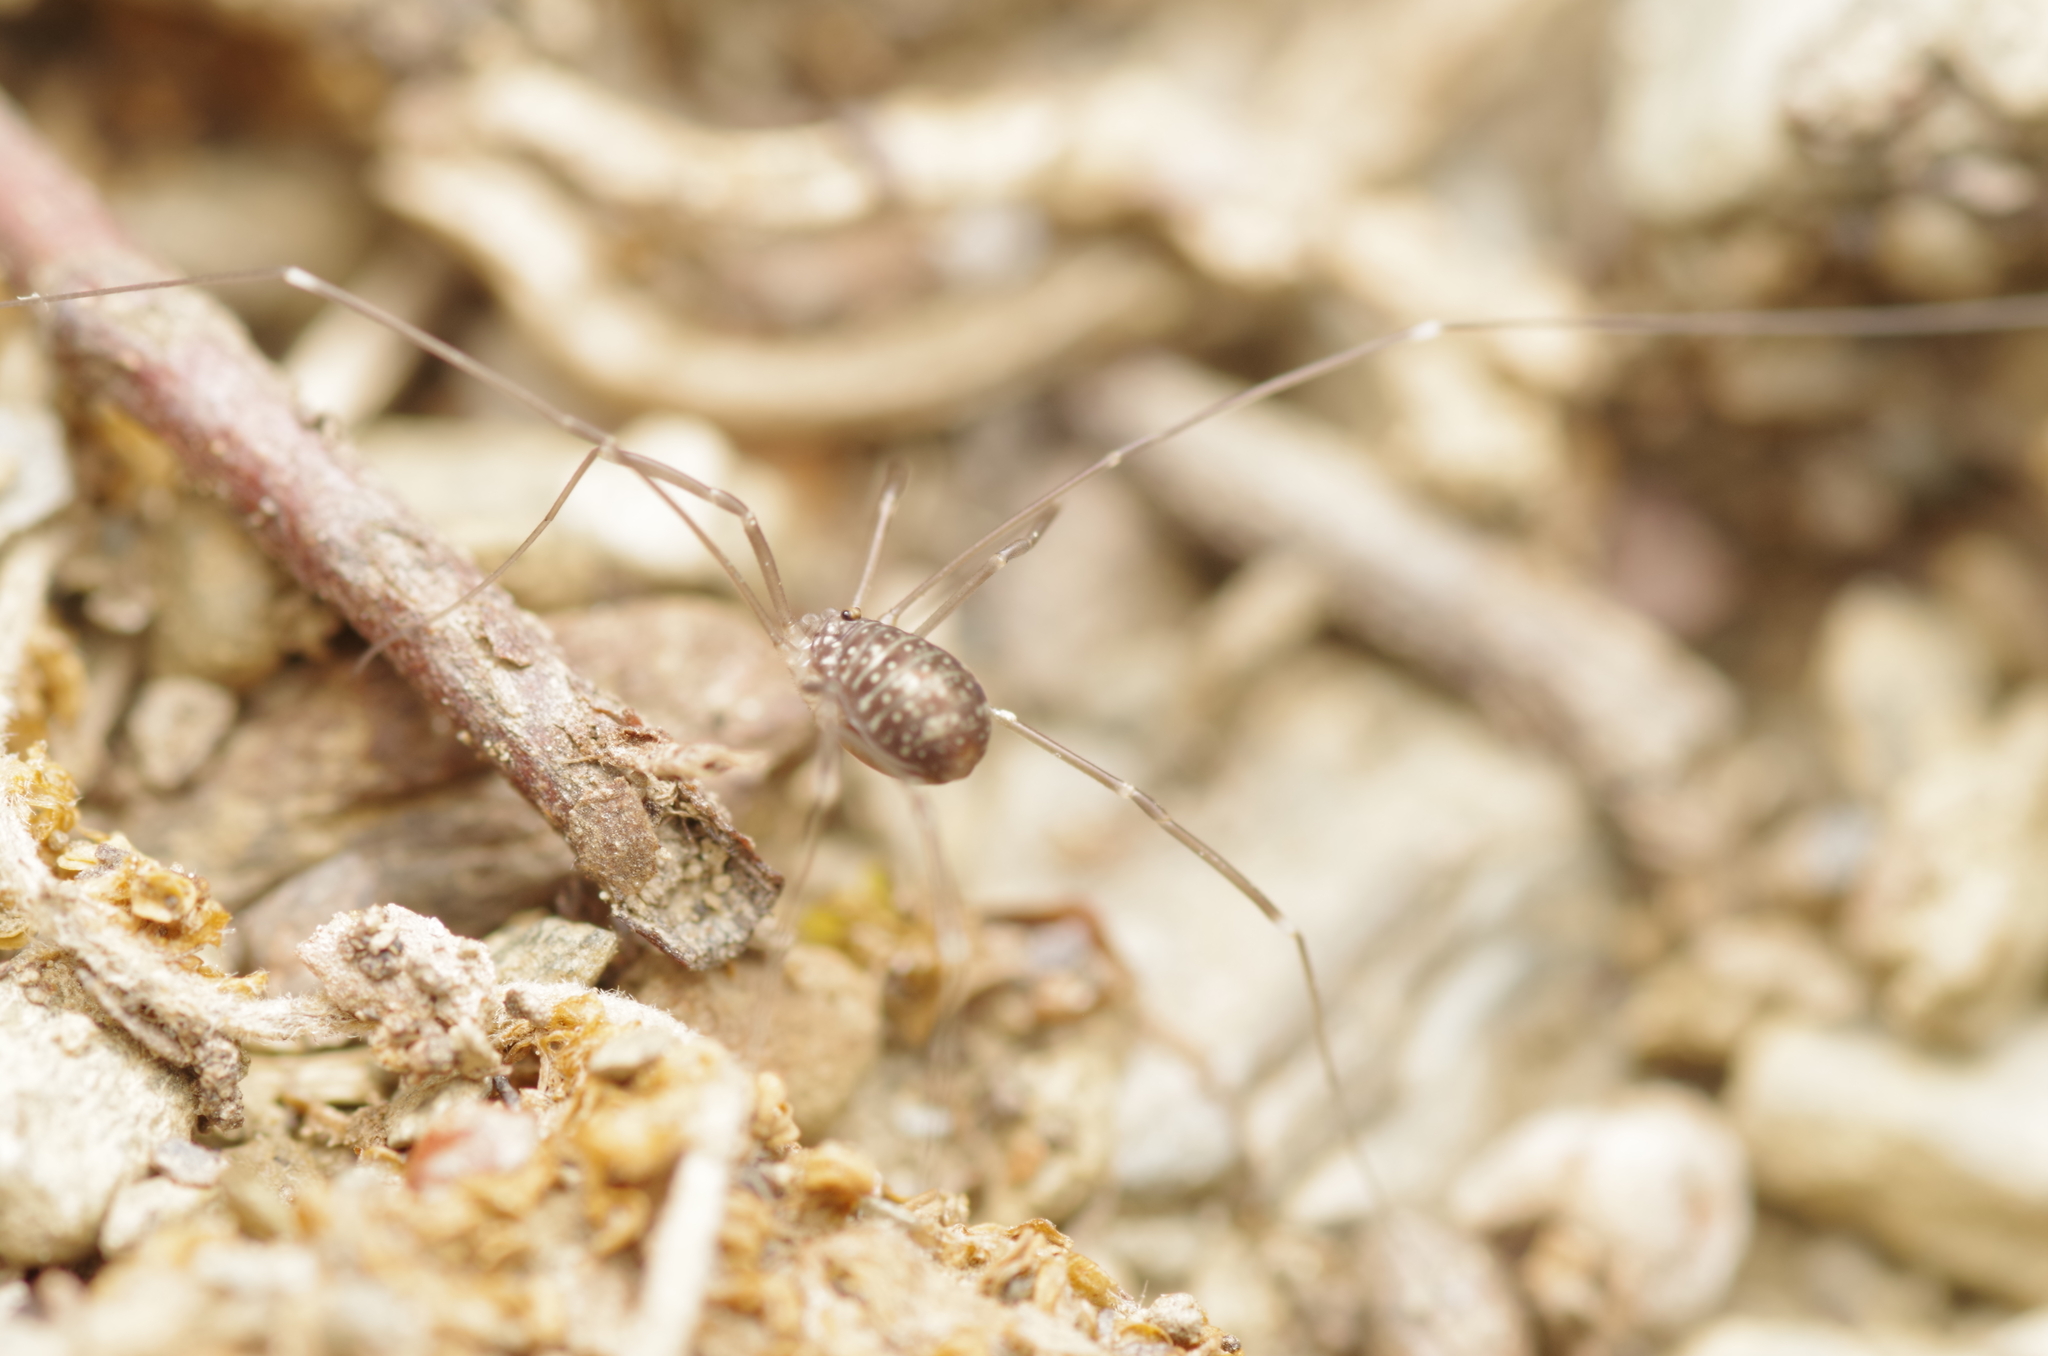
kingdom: Animalia
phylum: Arthropoda
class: Arachnida
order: Opiliones
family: Sclerosomatidae
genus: Nelima
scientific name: Nelima gothica
